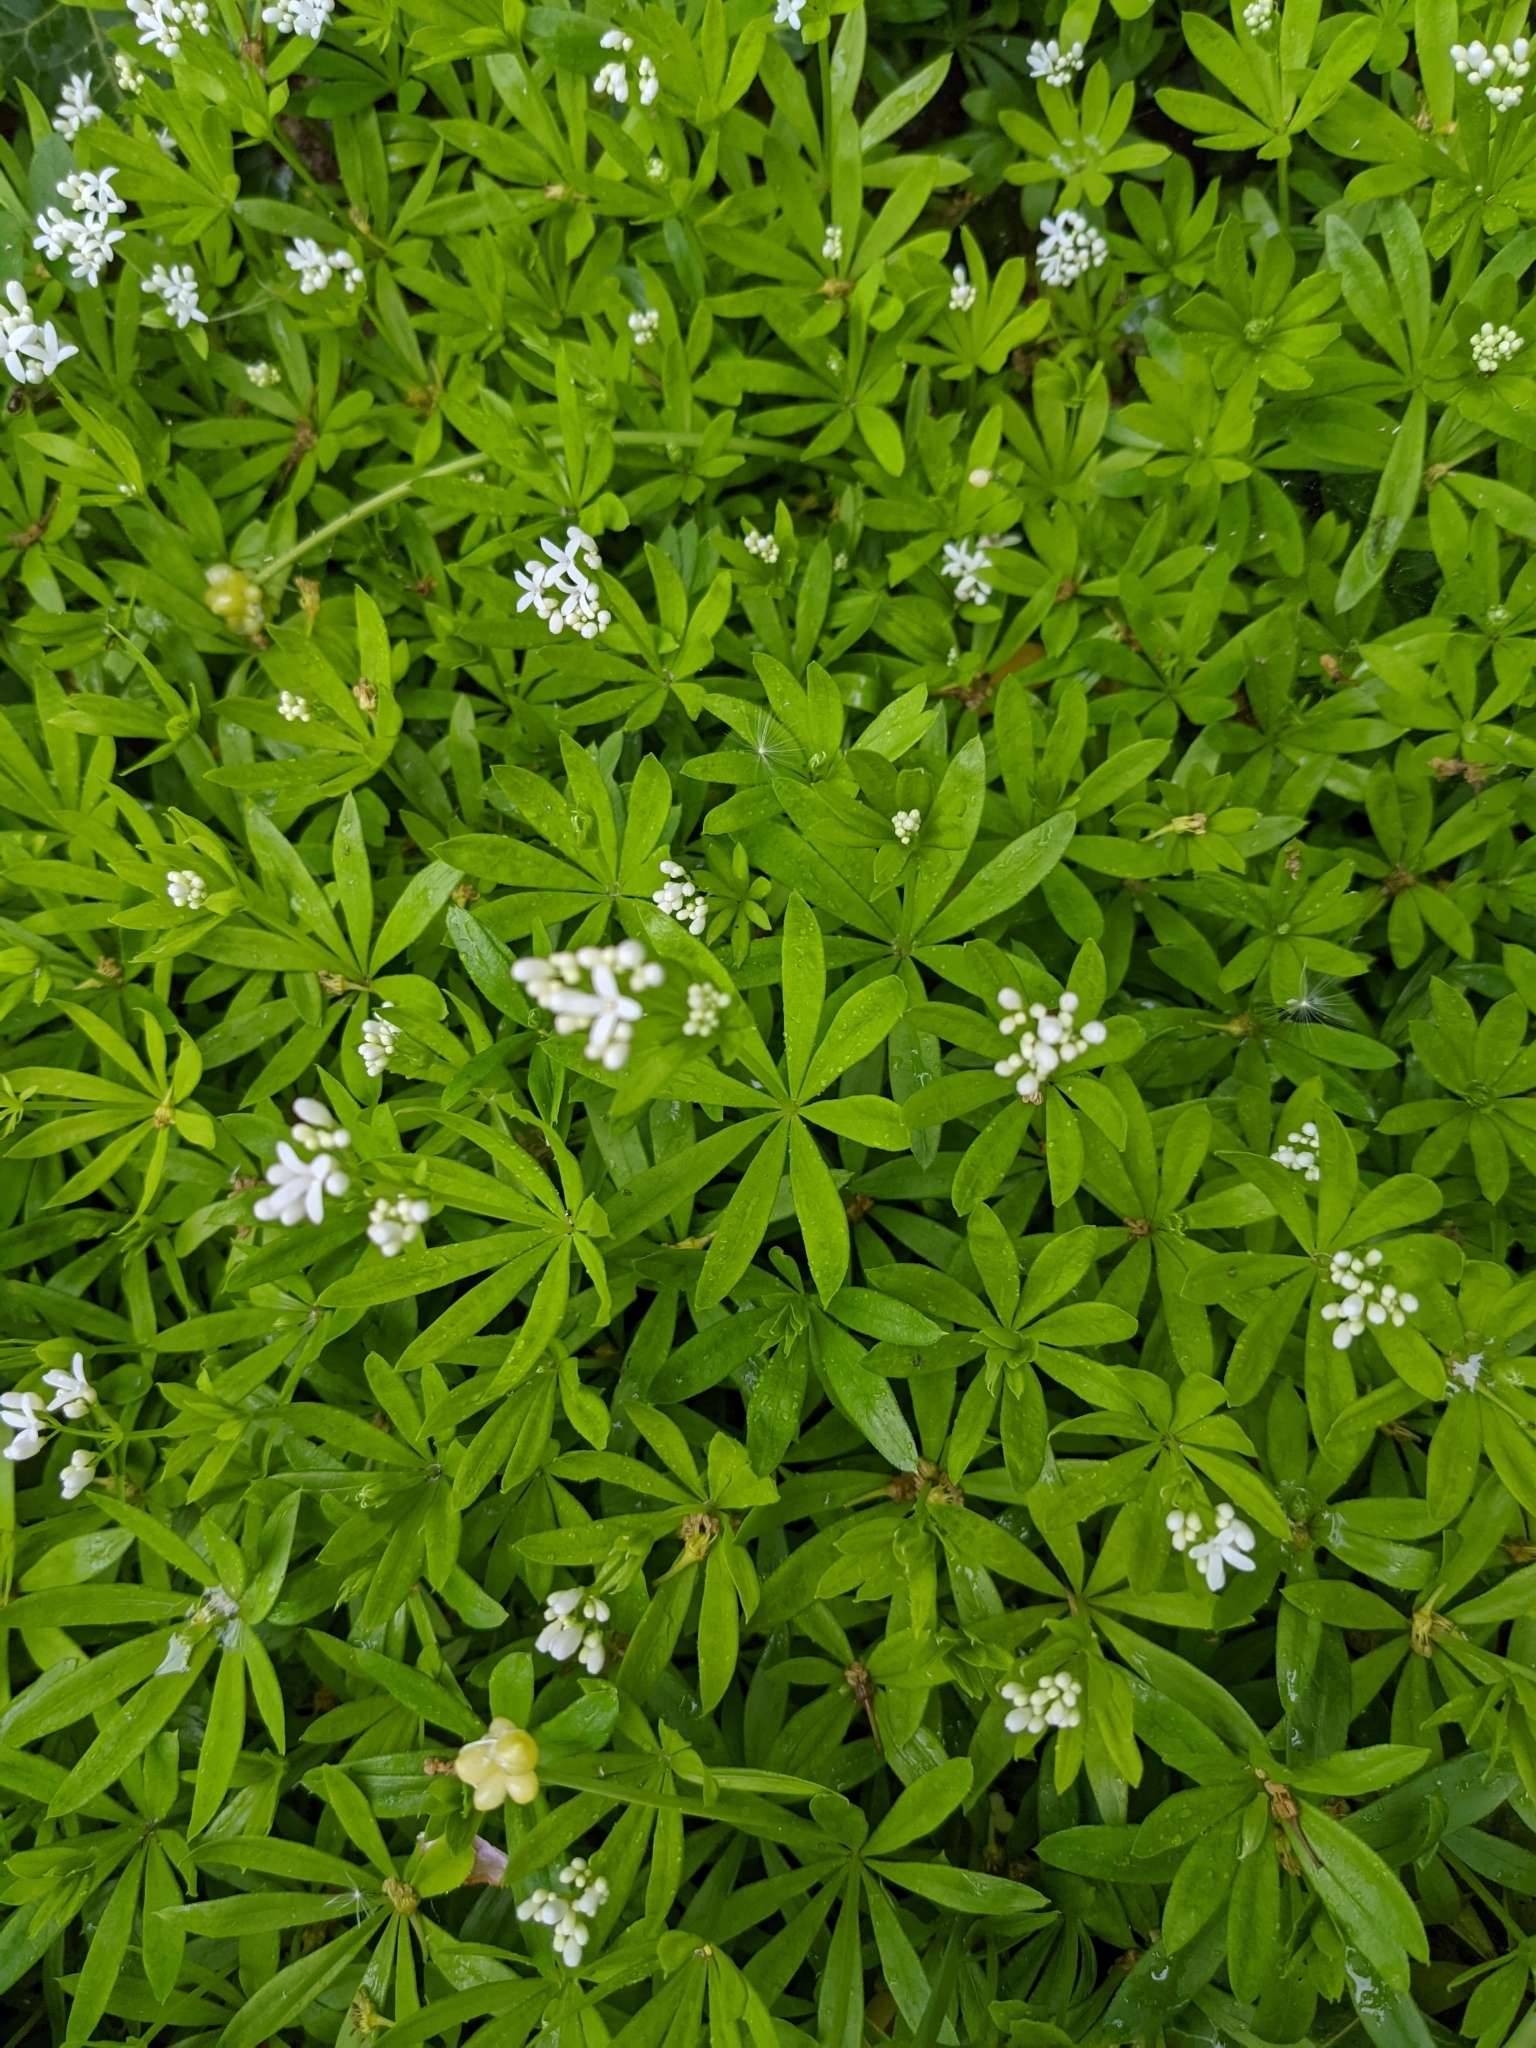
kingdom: Plantae
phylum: Tracheophyta
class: Magnoliopsida
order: Gentianales
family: Rubiaceae
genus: Galium
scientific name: Galium odoratum
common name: Sweet woodruff
